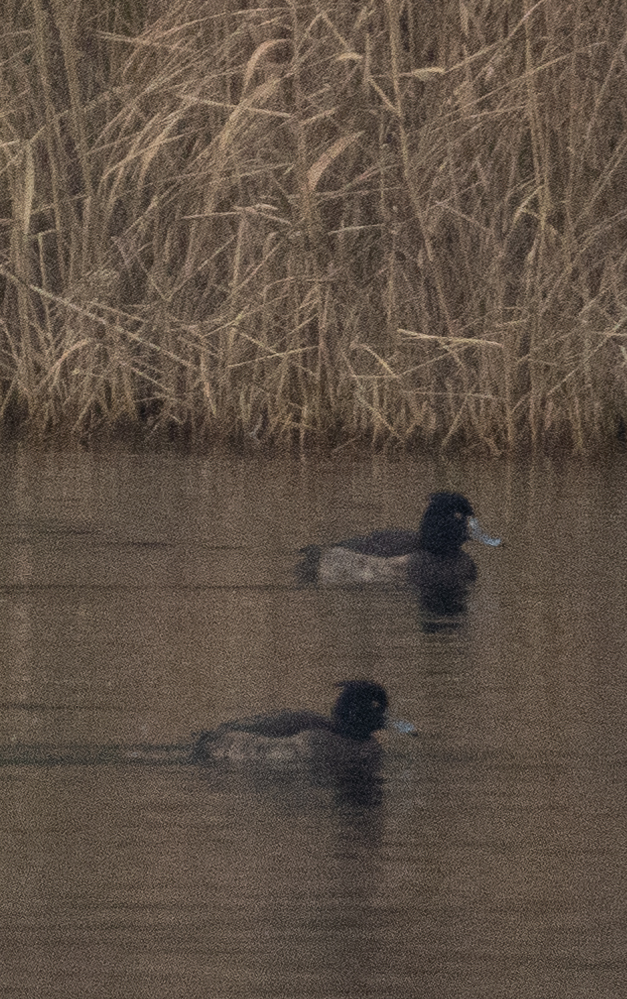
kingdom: Animalia
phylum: Chordata
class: Aves
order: Anseriformes
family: Anatidae
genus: Aythya
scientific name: Aythya fuligula
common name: Tufted duck
